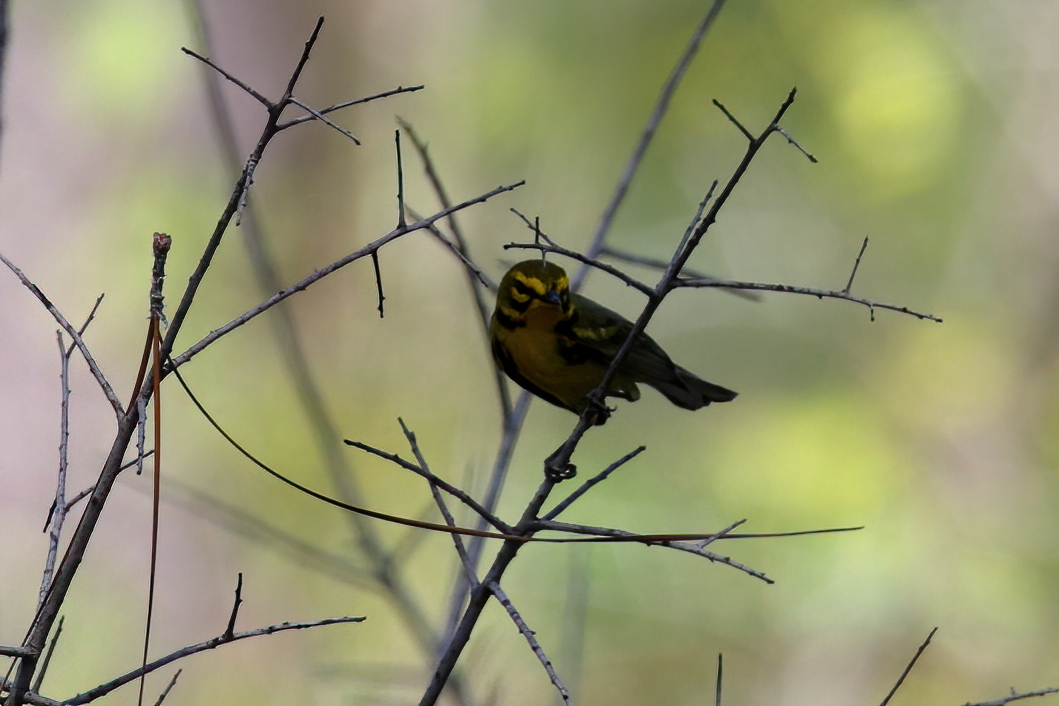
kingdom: Animalia
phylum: Chordata
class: Aves
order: Passeriformes
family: Parulidae
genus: Setophaga
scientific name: Setophaga discolor
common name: Prairie warbler
